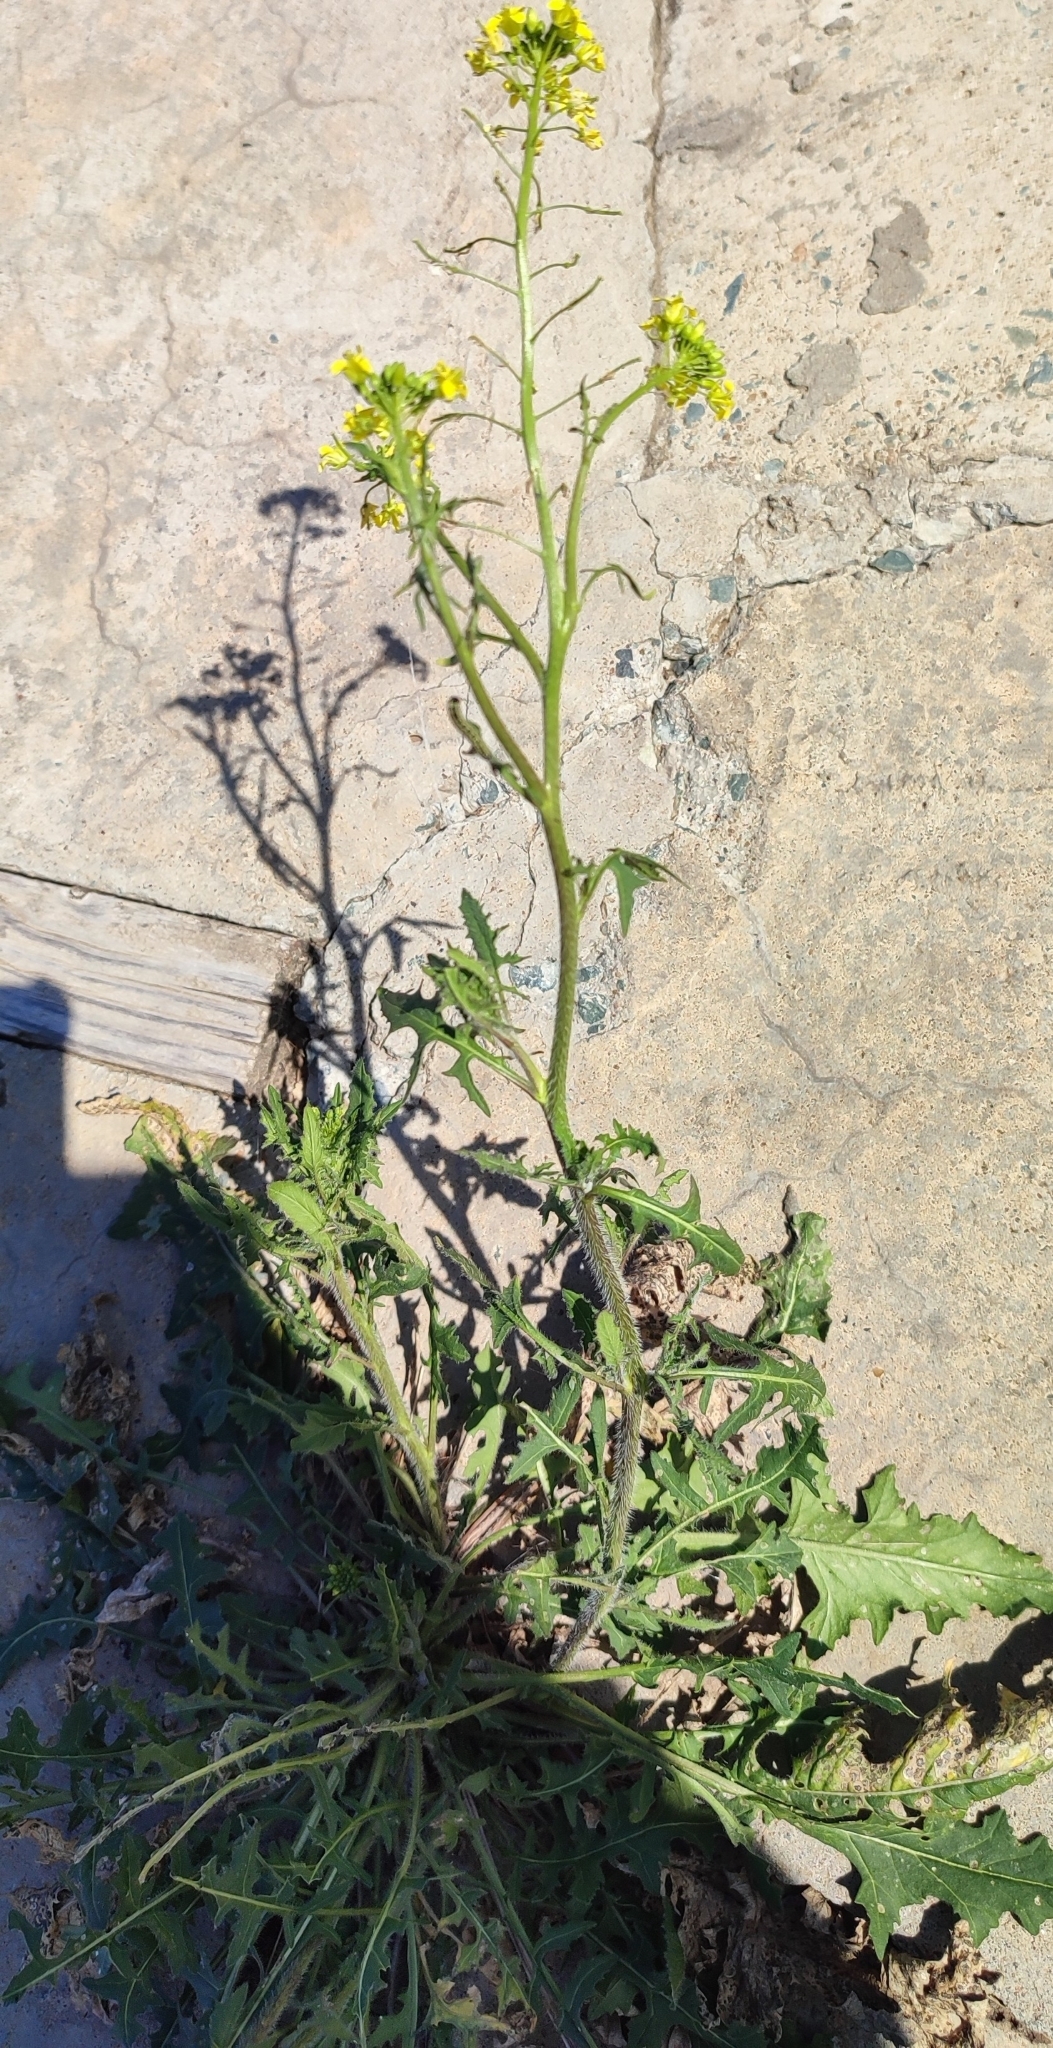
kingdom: Plantae
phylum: Tracheophyta
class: Magnoliopsida
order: Brassicales
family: Brassicaceae
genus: Sisymbrium
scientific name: Sisymbrium loeselii
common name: False london-rocket
